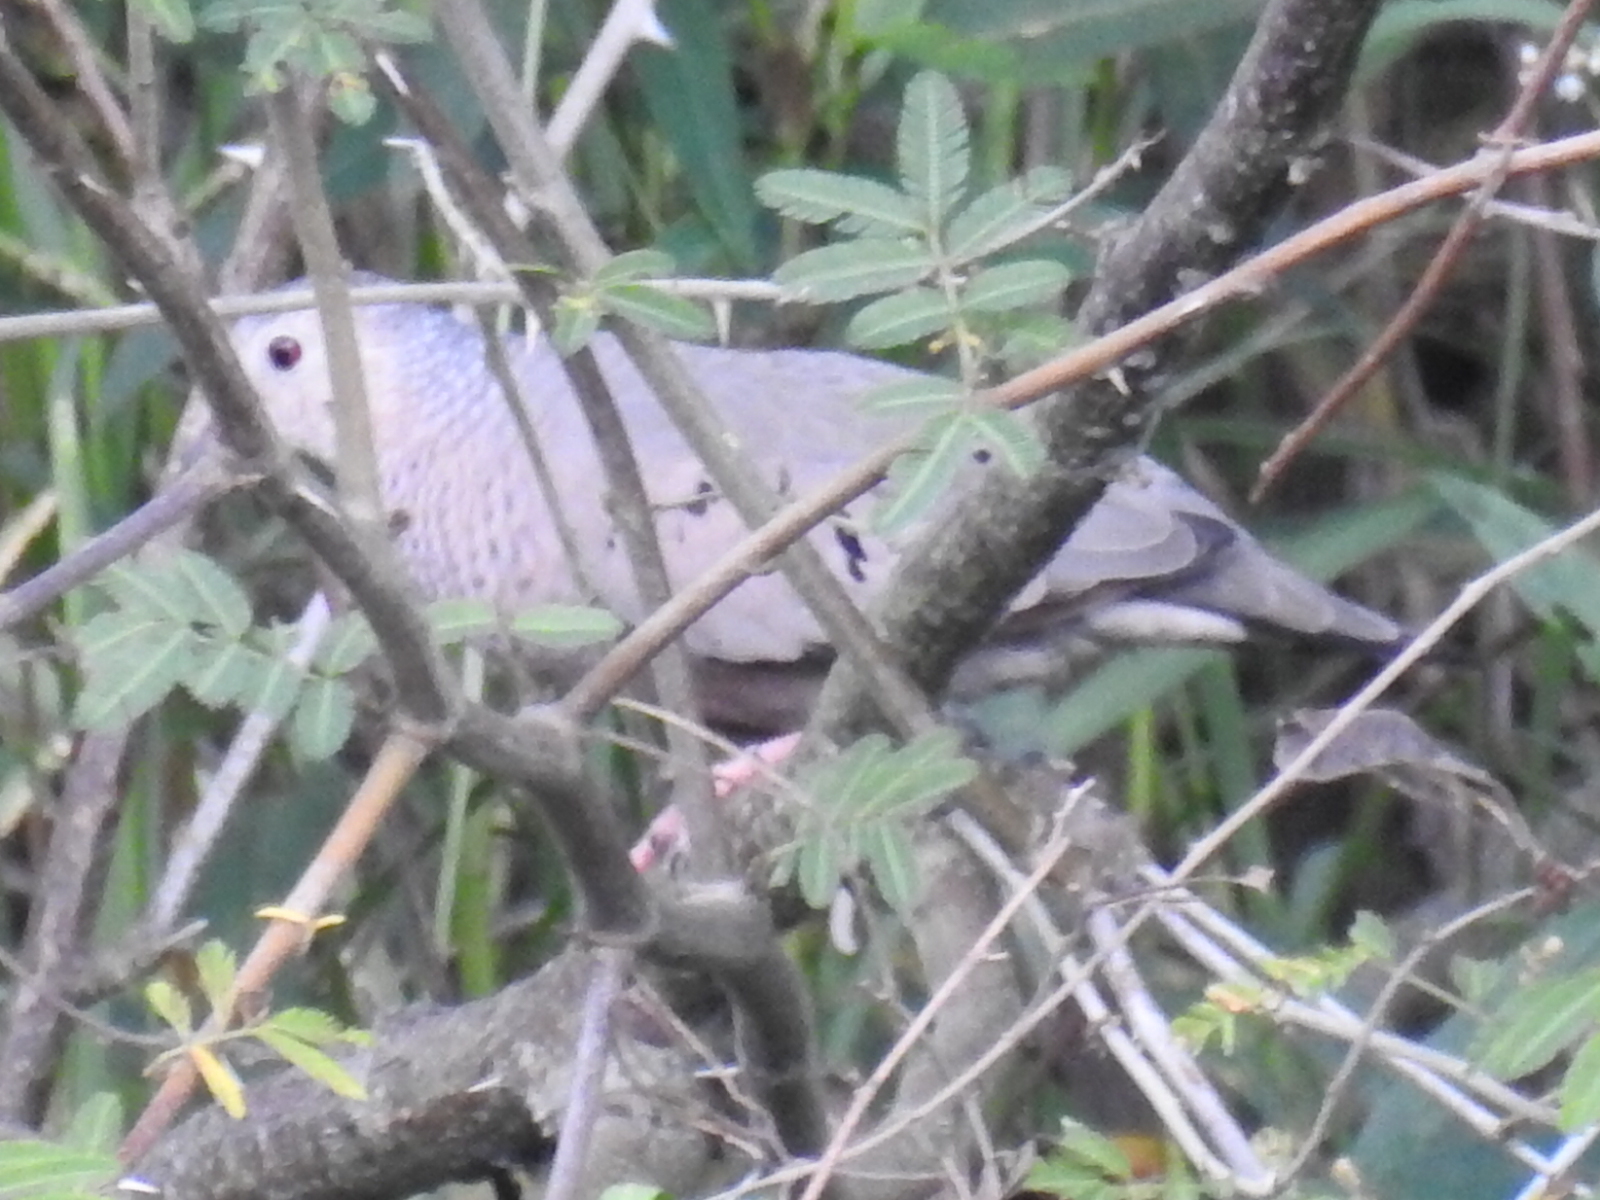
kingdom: Animalia
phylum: Chordata
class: Aves
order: Columbiformes
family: Columbidae
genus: Columbina
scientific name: Columbina passerina
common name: Common ground-dove
